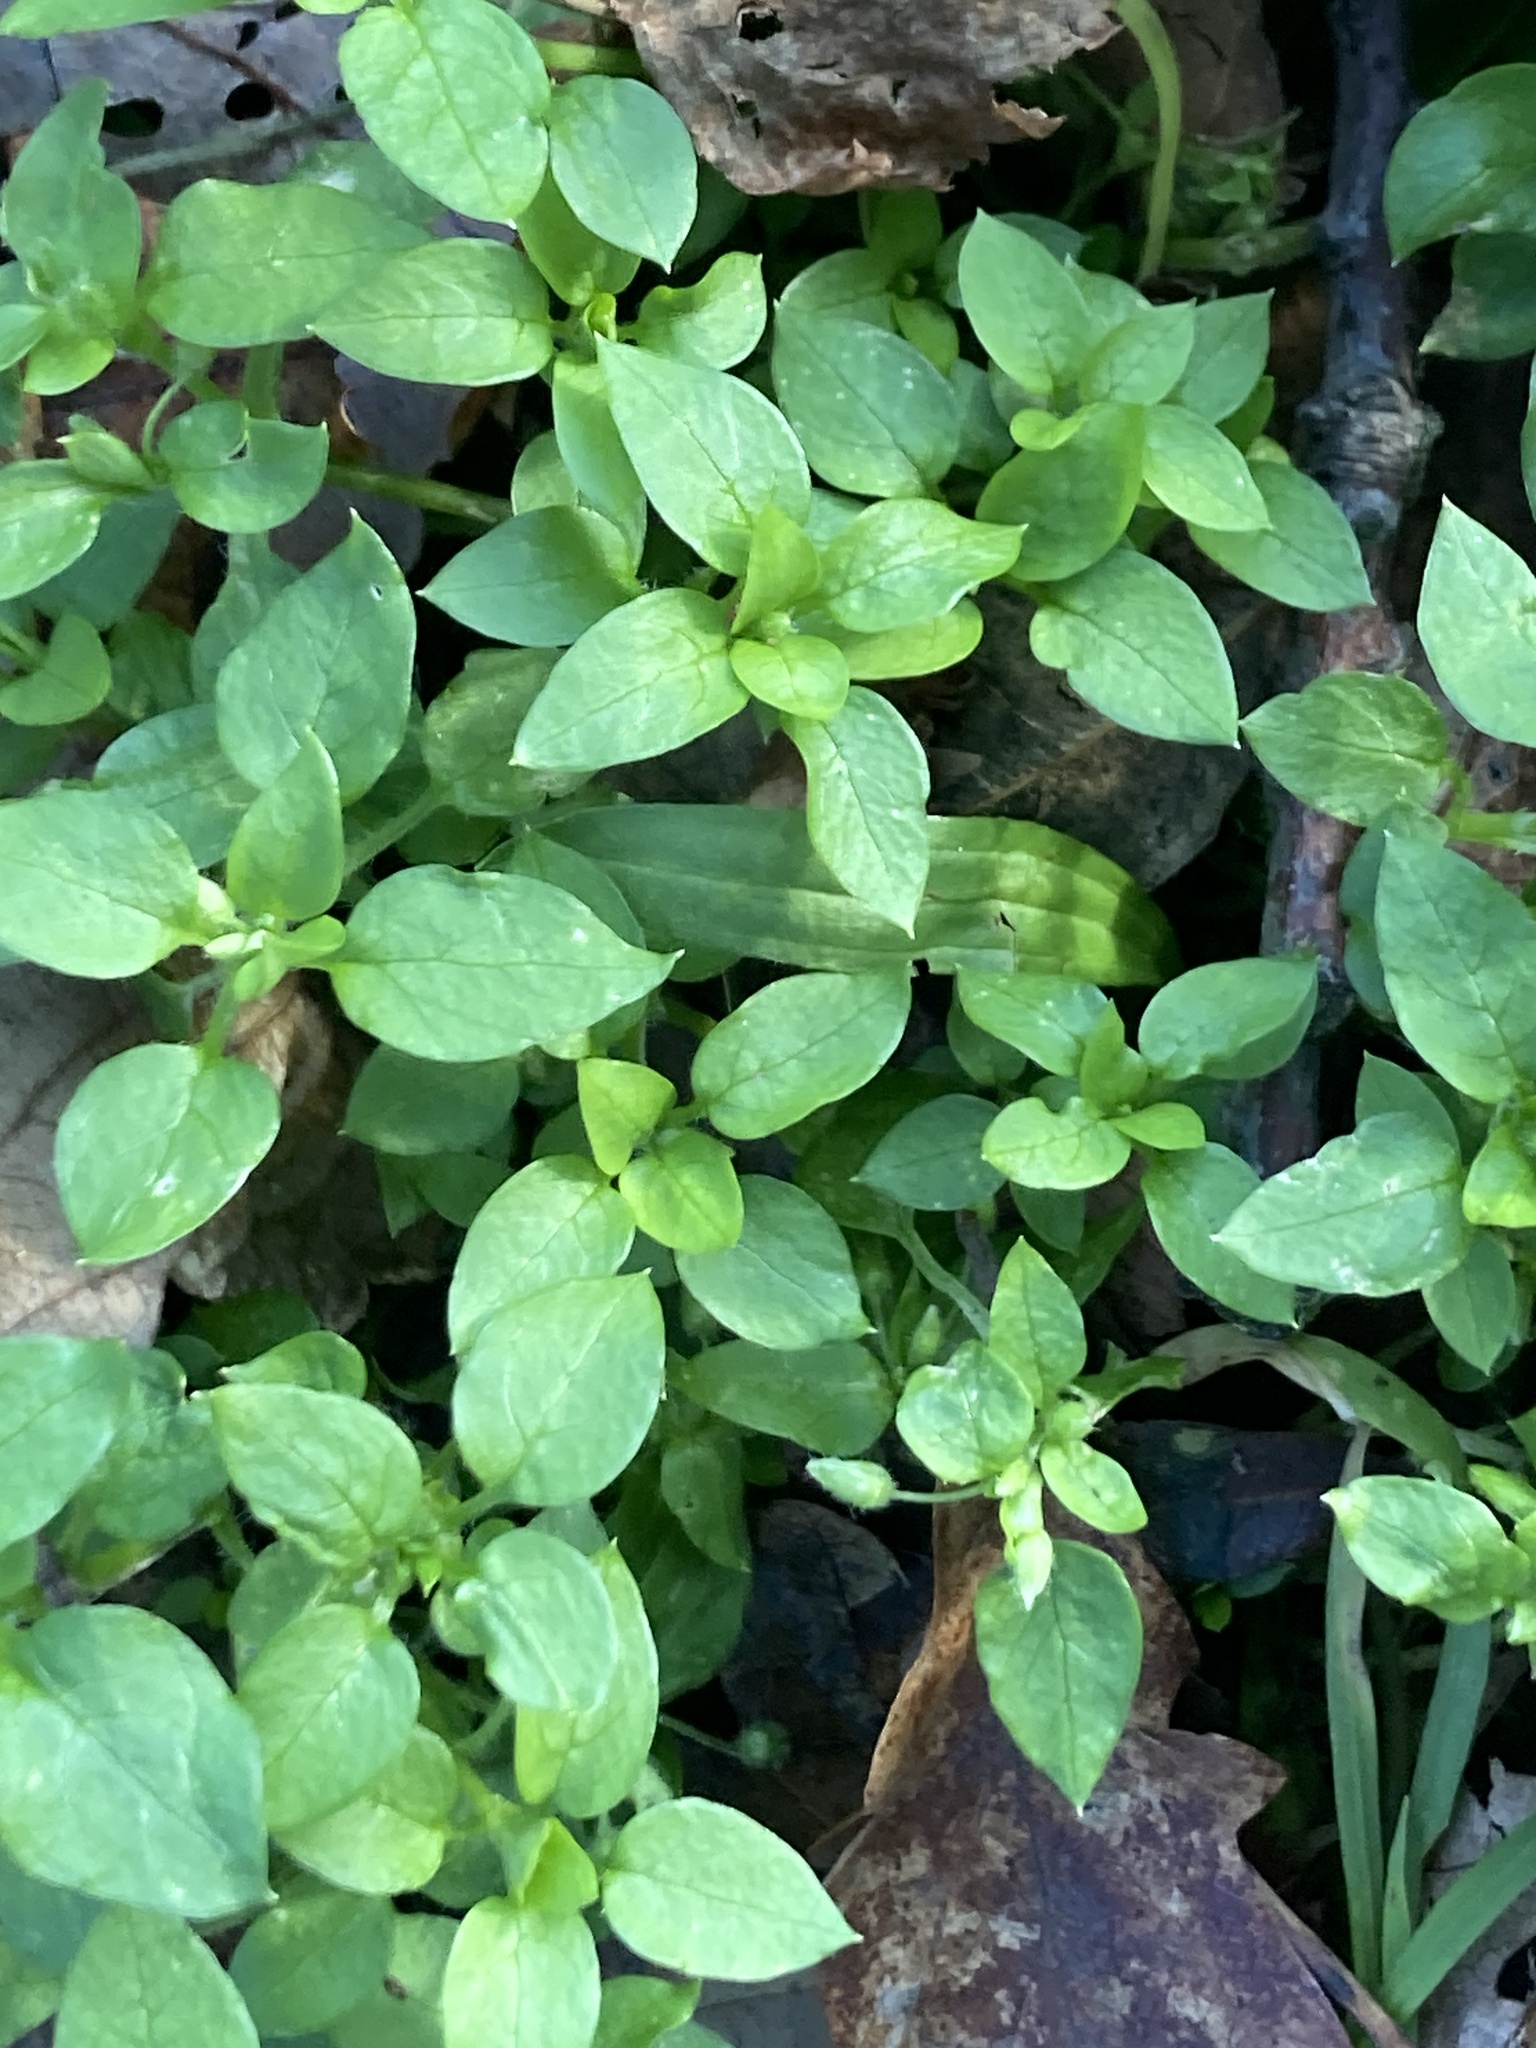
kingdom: Plantae
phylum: Tracheophyta
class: Magnoliopsida
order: Caryophyllales
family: Caryophyllaceae
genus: Stellaria
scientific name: Stellaria media
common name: Common chickweed
